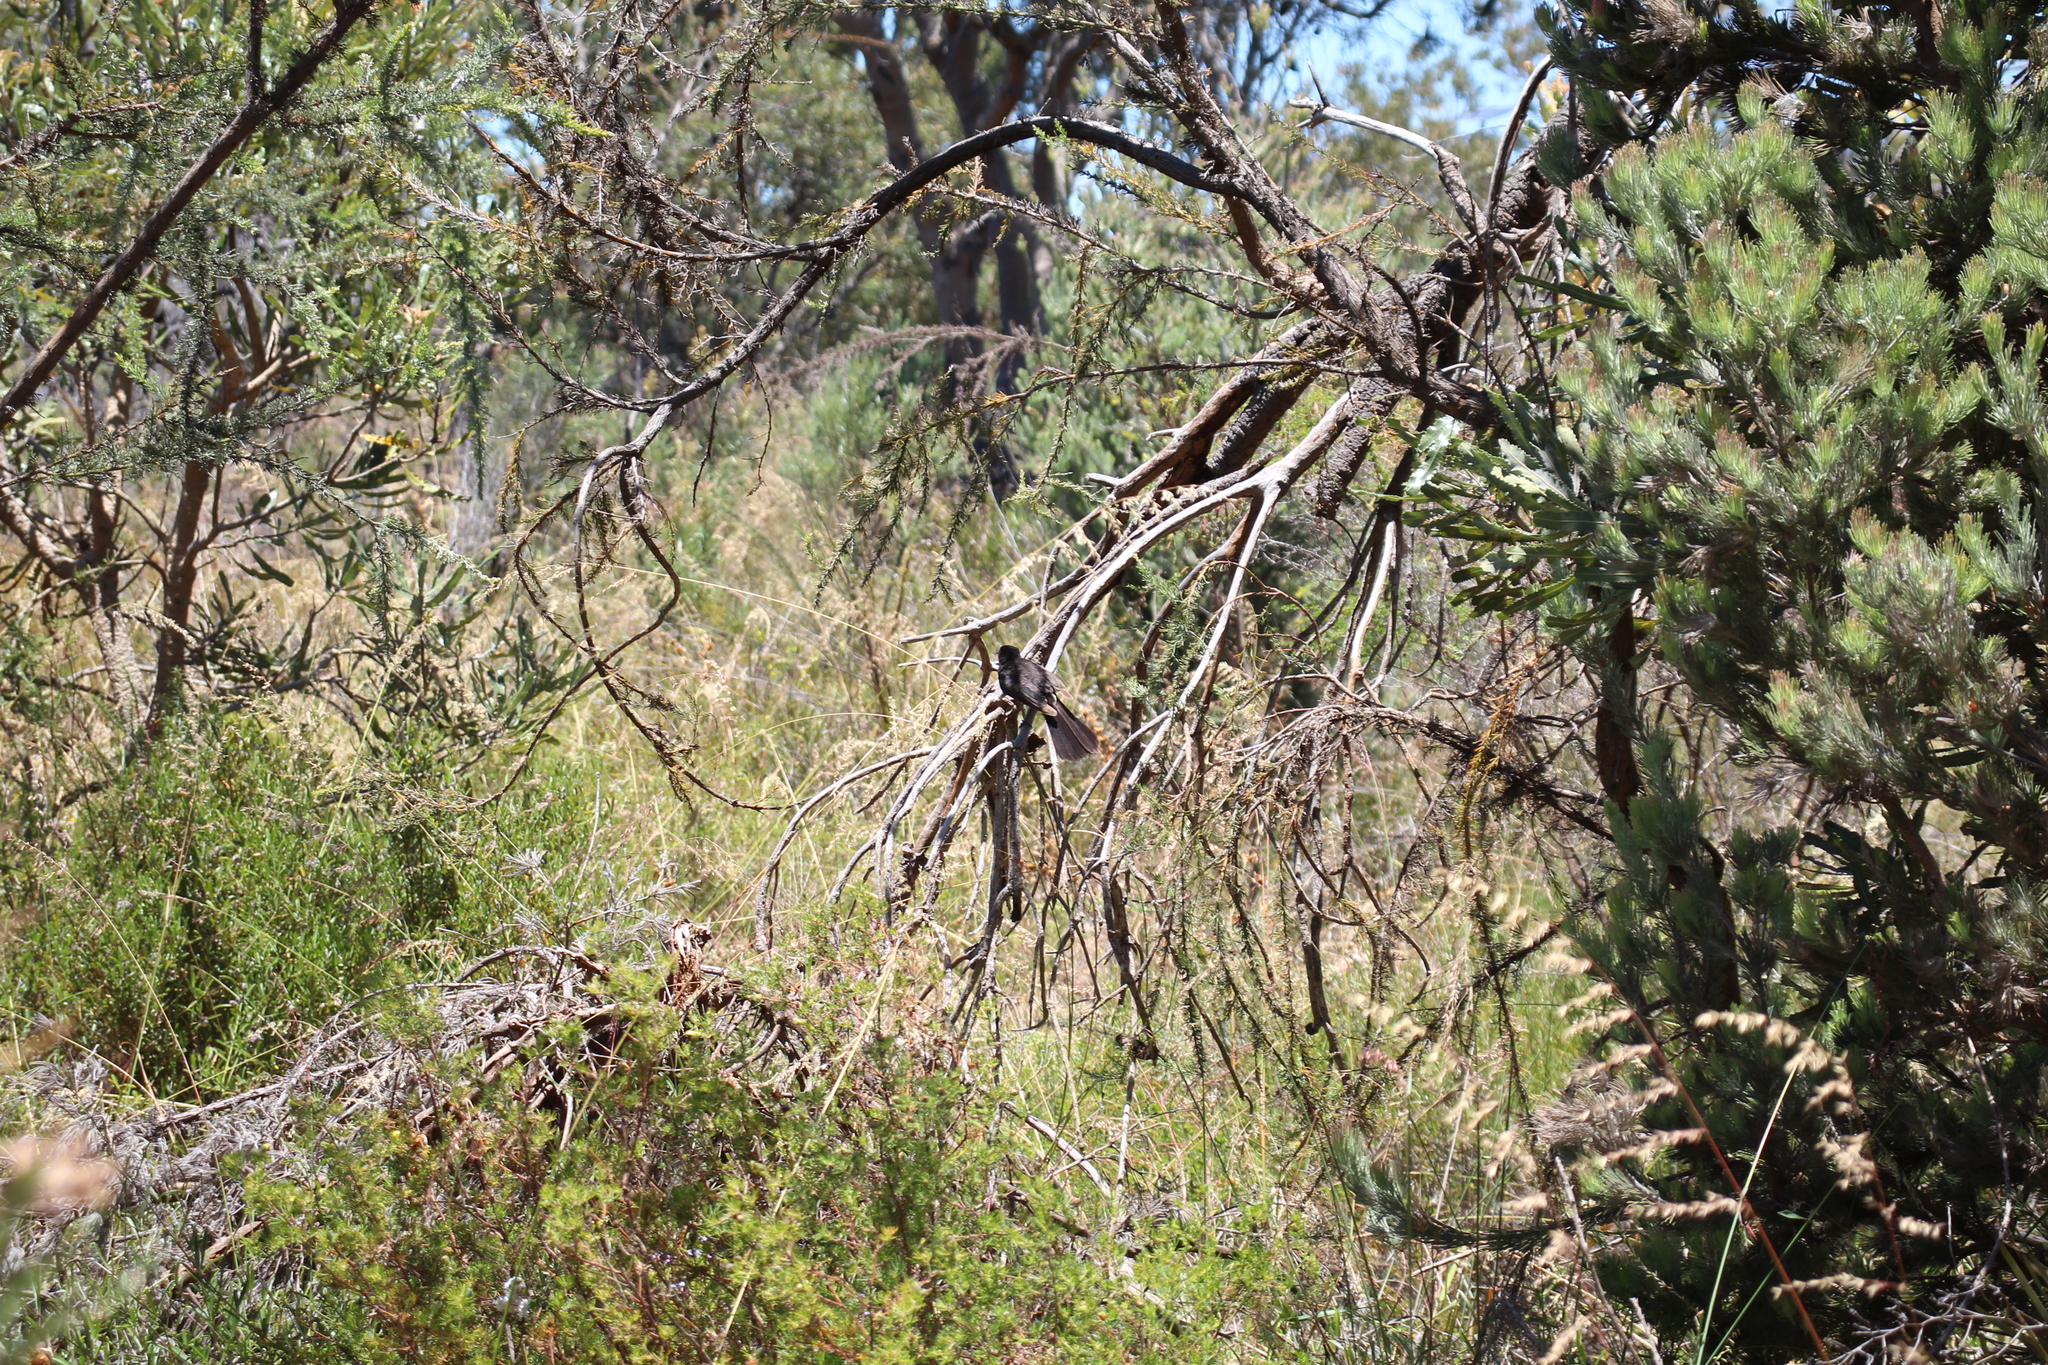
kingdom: Animalia
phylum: Chordata
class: Aves
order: Passeriformes
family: Rhipiduridae
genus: Rhipidura
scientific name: Rhipidura leucophrys
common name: Willie wagtail
